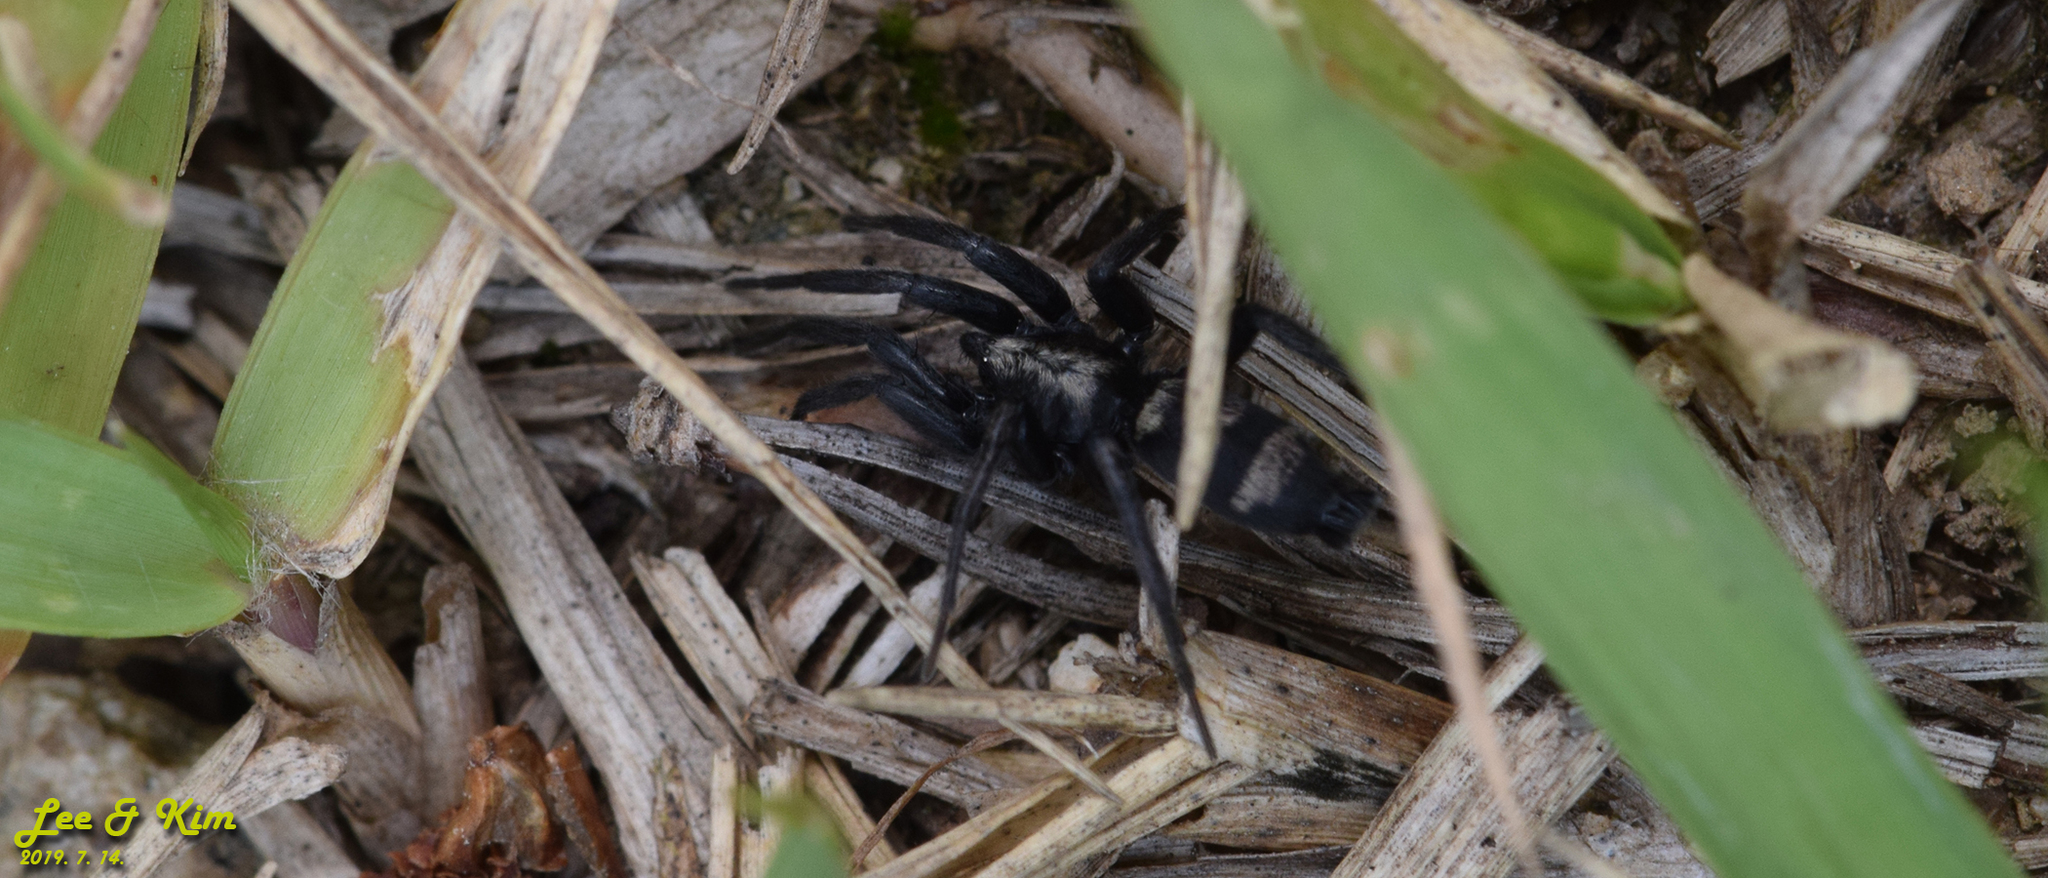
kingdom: Animalia
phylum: Arthropoda
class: Arachnida
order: Araneae
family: Gnaphosidae
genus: Sernokorba
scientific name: Sernokorba pallidipatellis
